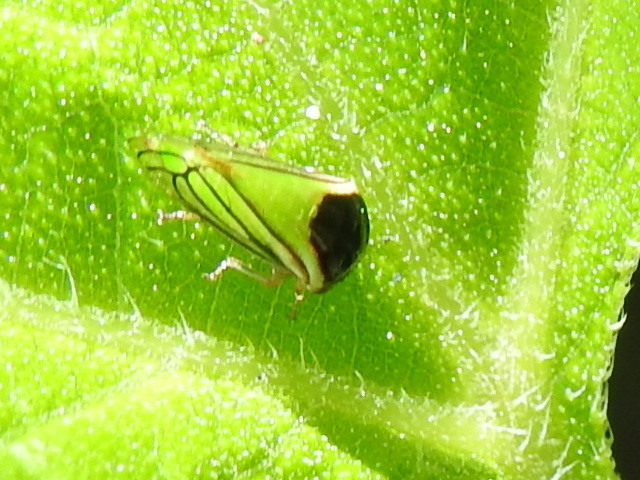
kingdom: Animalia
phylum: Arthropoda
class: Insecta
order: Hemiptera
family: Membracidae
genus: Acutalis
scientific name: Acutalis tartarea
